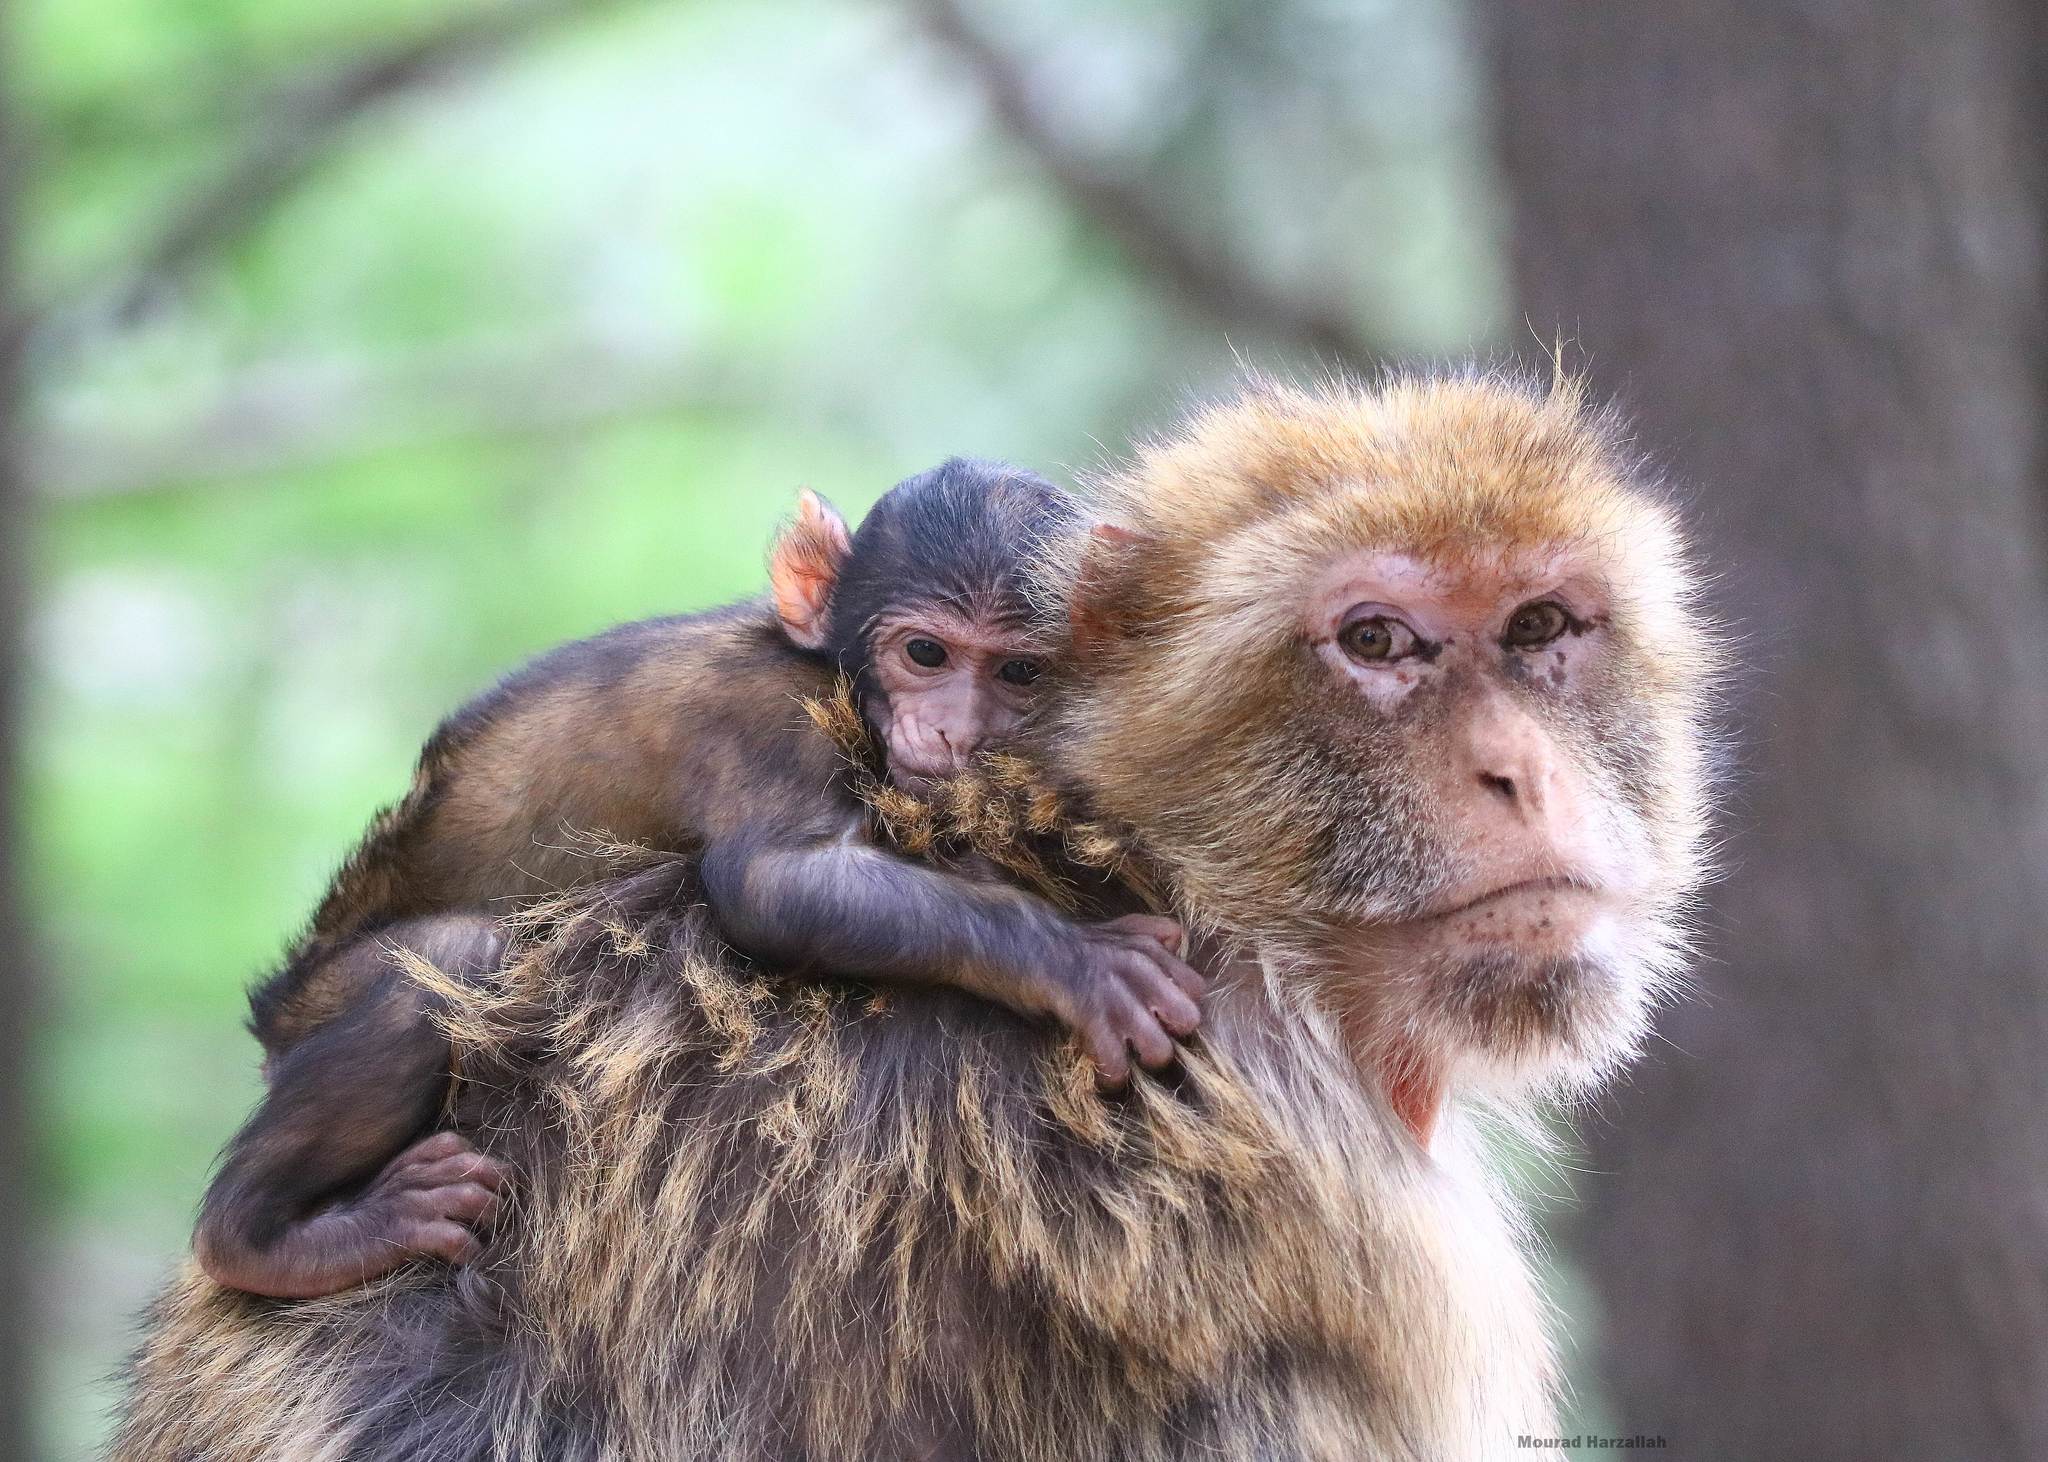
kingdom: Animalia
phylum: Chordata
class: Mammalia
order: Primates
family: Cercopithecidae
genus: Macaca
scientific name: Macaca sylvanus
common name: Barbary macaque
